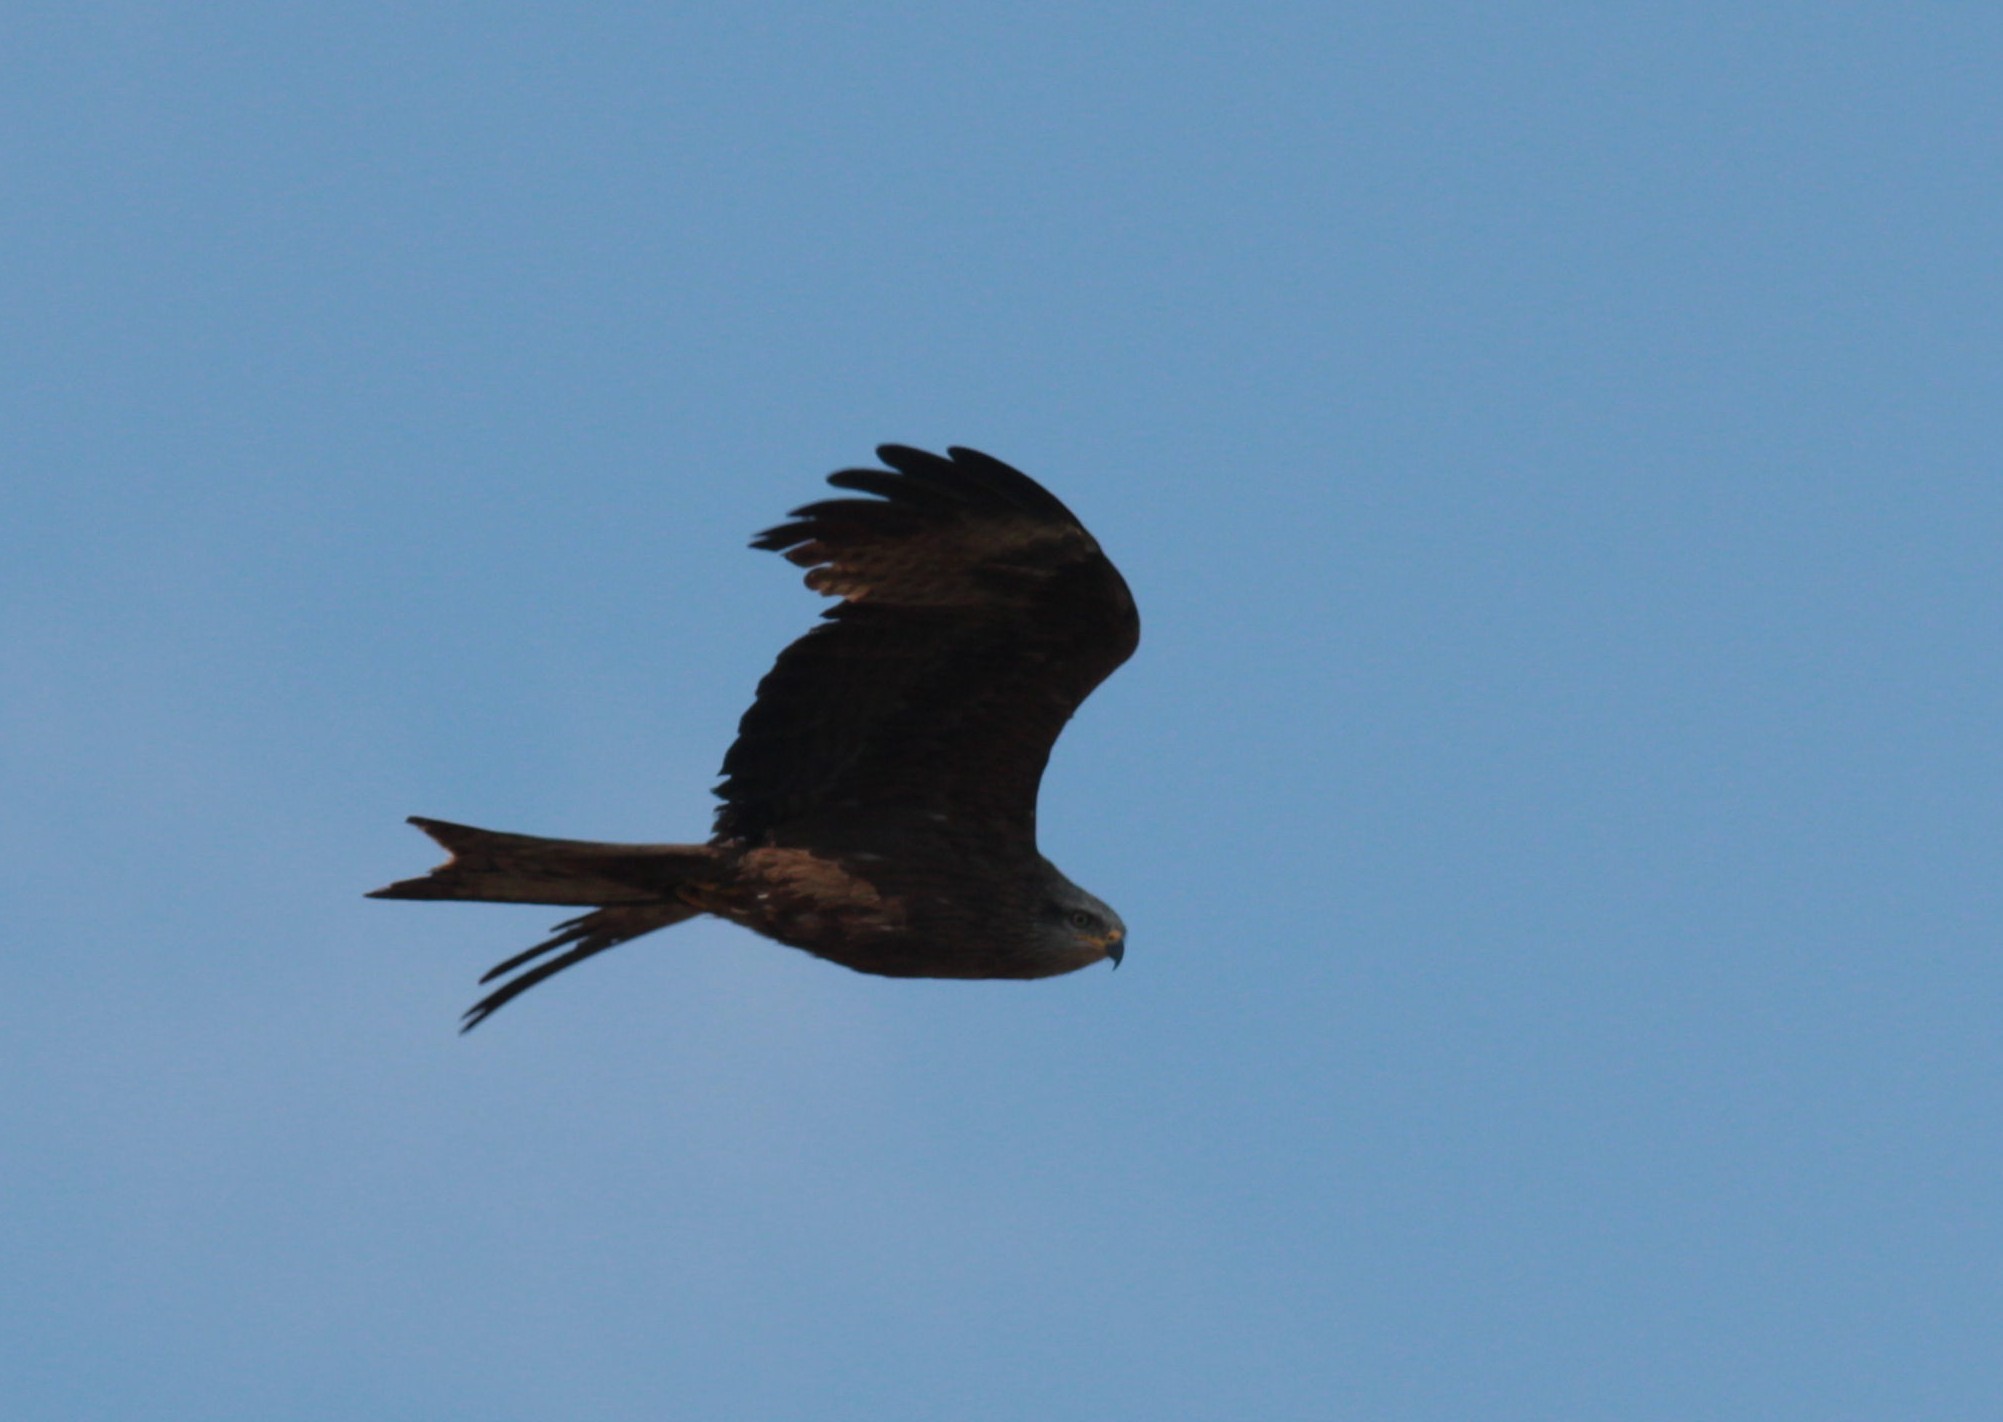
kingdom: Animalia
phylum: Chordata
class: Aves
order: Accipitriformes
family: Accipitridae
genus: Milvus
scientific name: Milvus migrans
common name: Black kite
